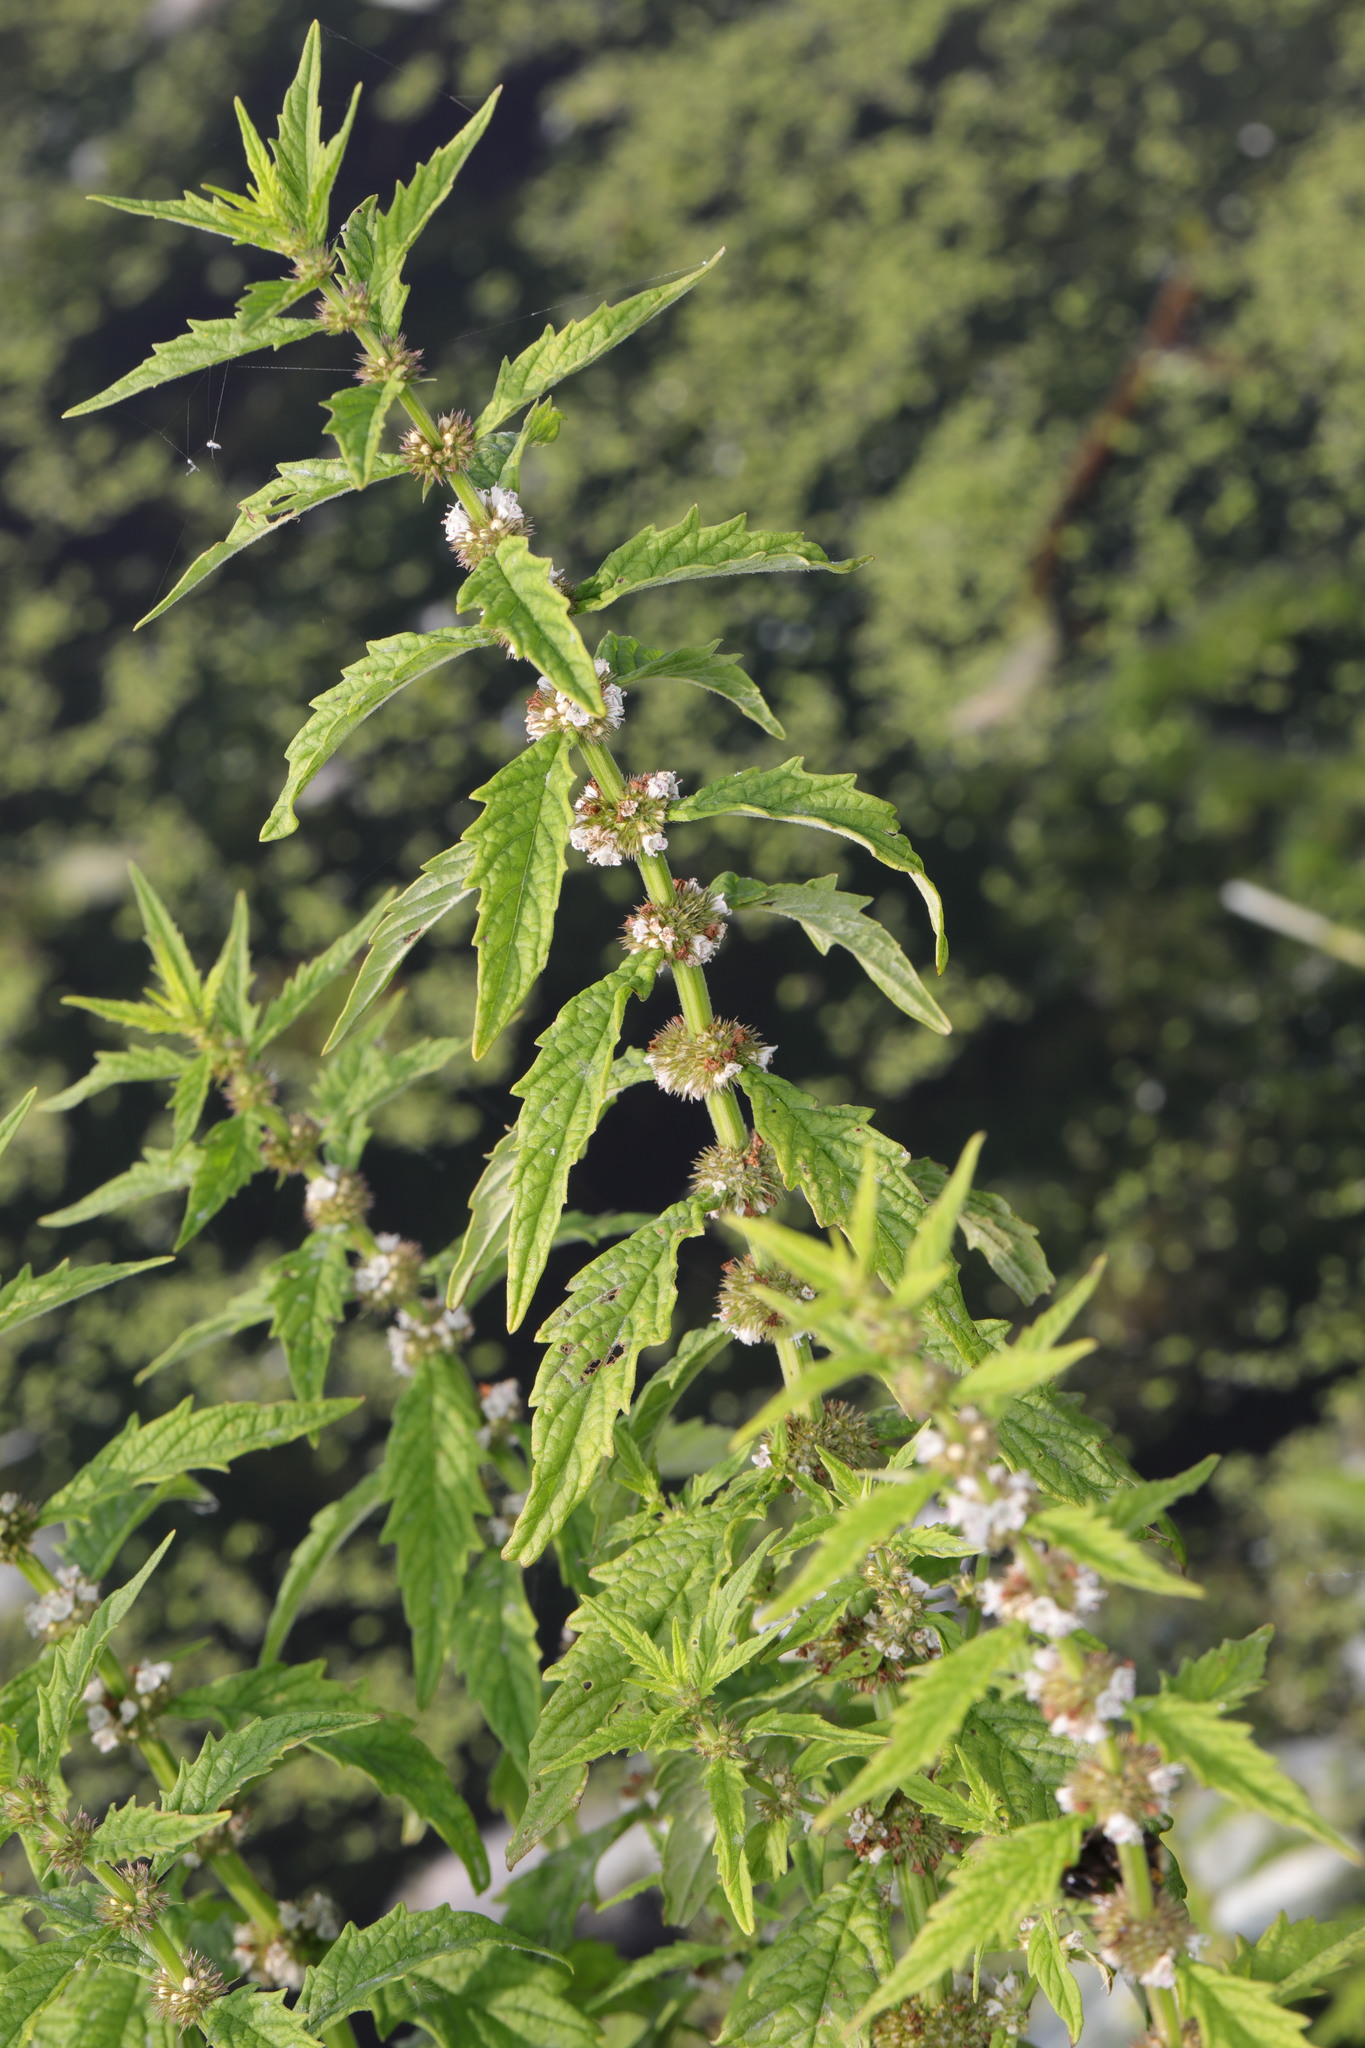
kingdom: Plantae
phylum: Tracheophyta
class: Magnoliopsida
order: Lamiales
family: Lamiaceae
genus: Lycopus
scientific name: Lycopus europaeus
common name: European bugleweed
